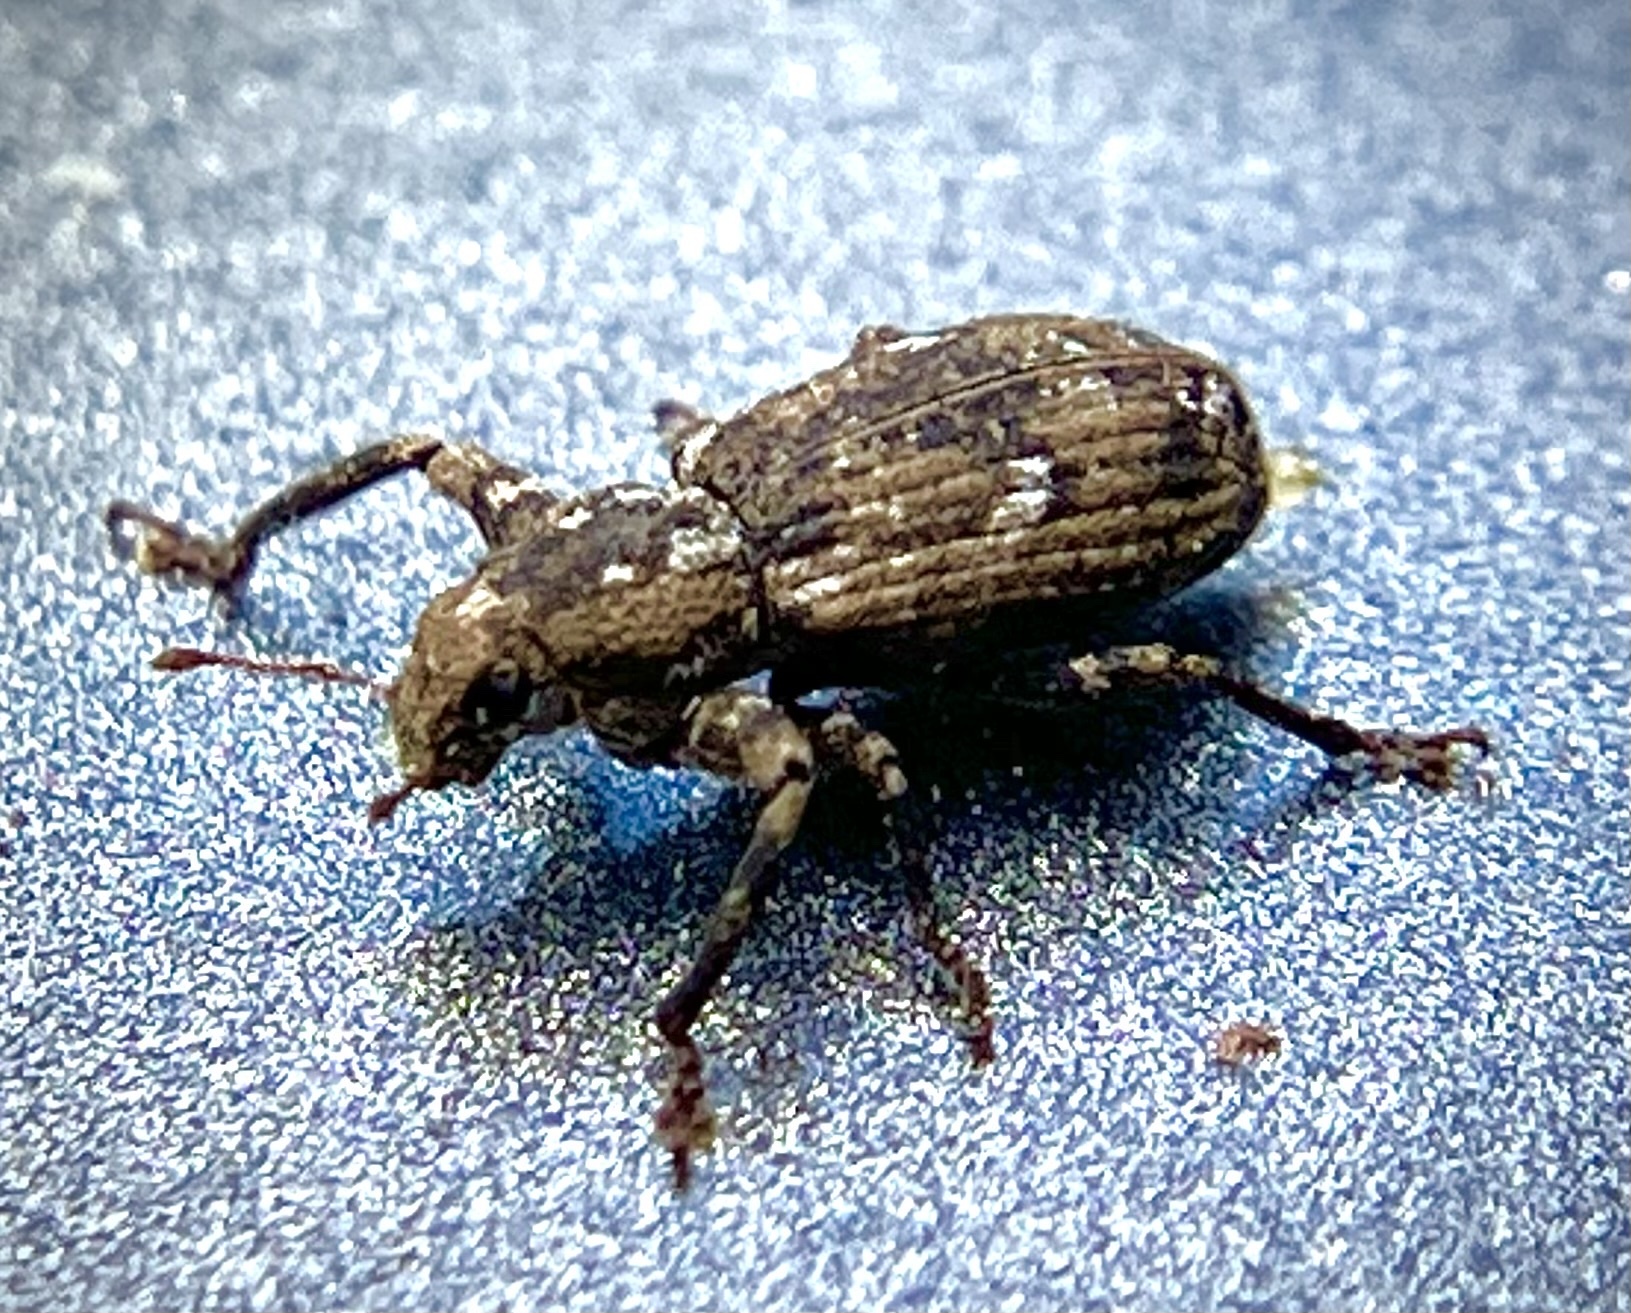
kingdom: Animalia
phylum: Arthropoda
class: Insecta
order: Coleoptera
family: Curculionidae
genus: Pandeleteius
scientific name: Pandeleteius hilaris
